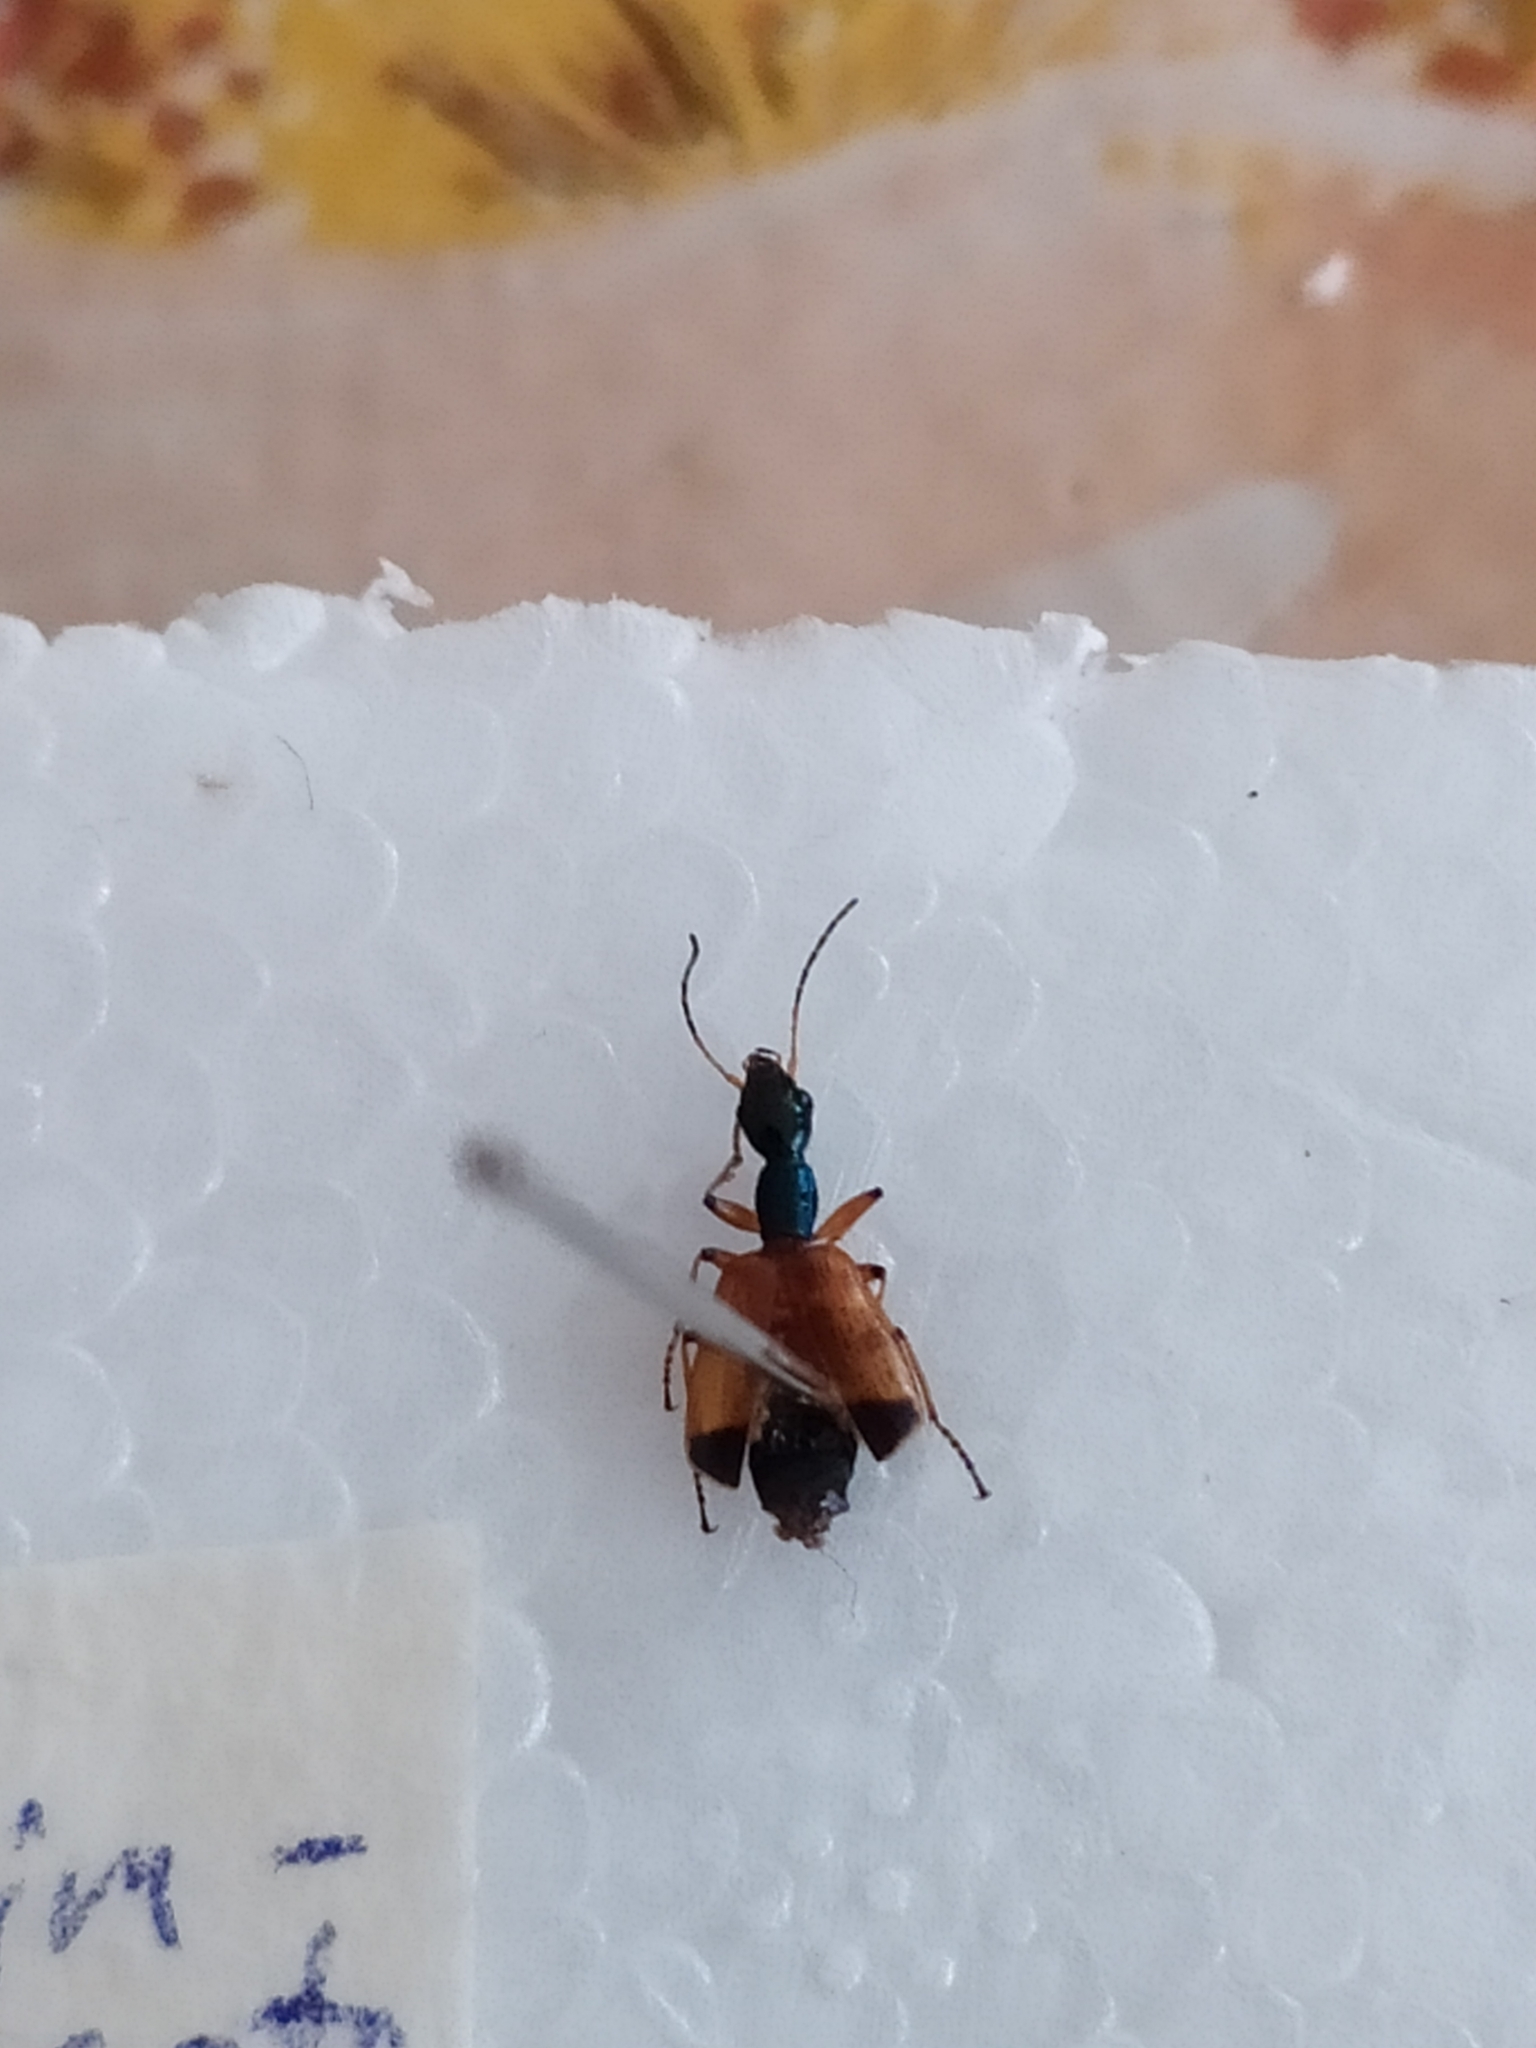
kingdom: Animalia
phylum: Arthropoda
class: Insecta
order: Coleoptera
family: Carabidae
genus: Odacantha
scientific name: Odacantha melanura
